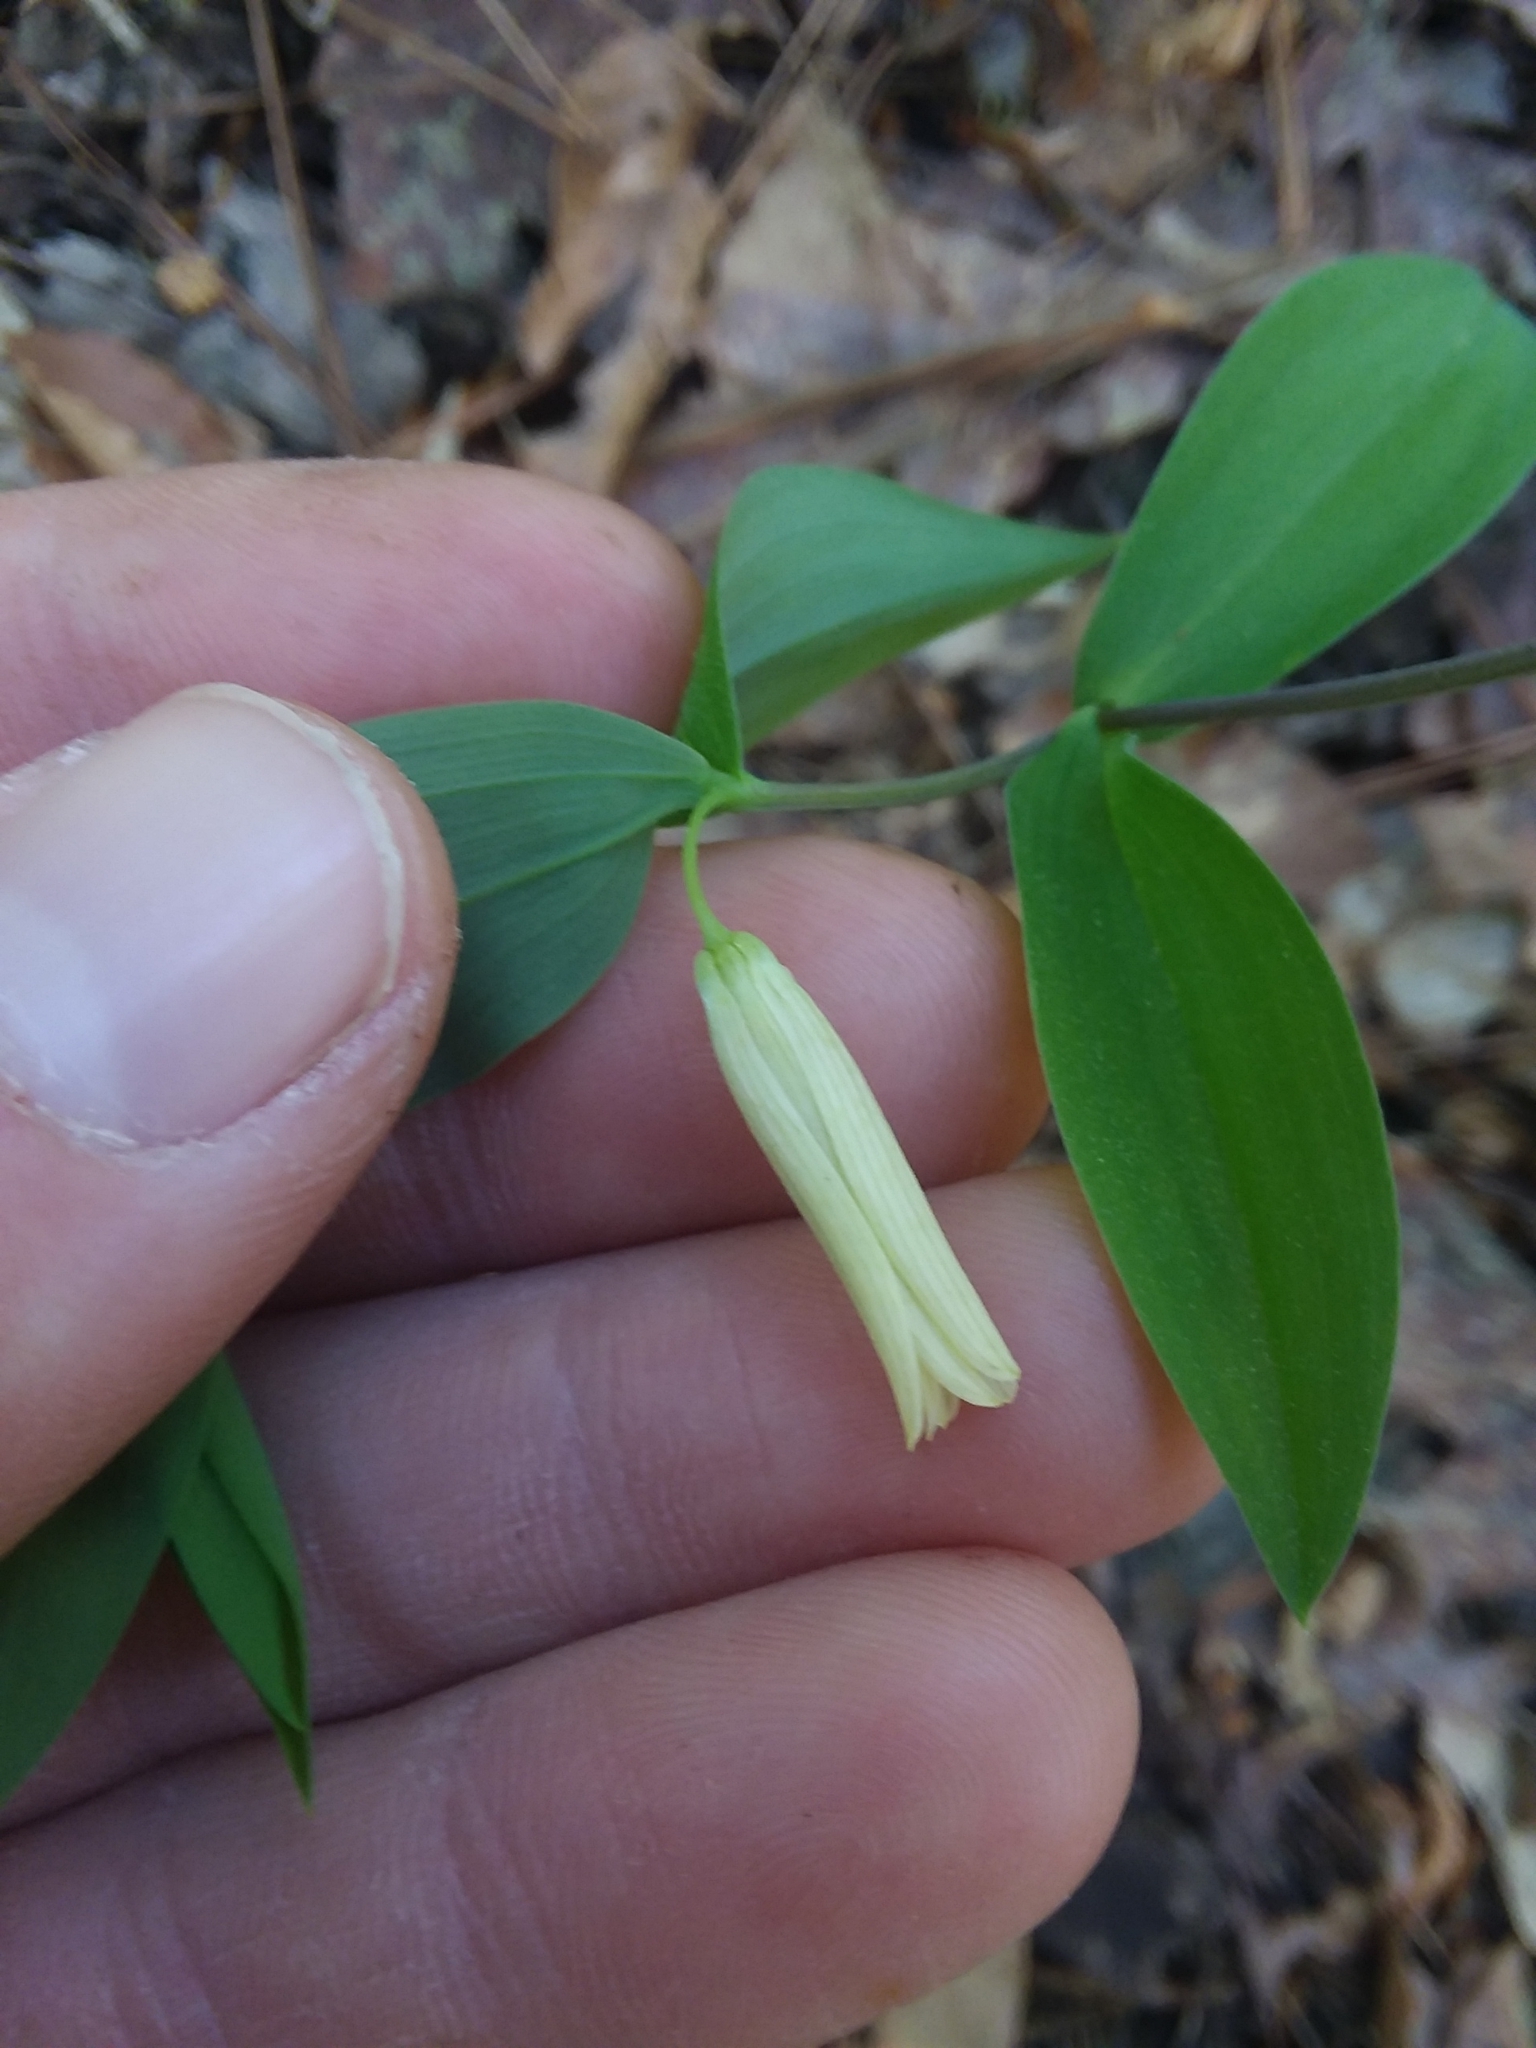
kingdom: Plantae
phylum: Tracheophyta
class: Liliopsida
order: Liliales
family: Colchicaceae
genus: Uvularia
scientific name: Uvularia sessilifolia
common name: Straw-lily
